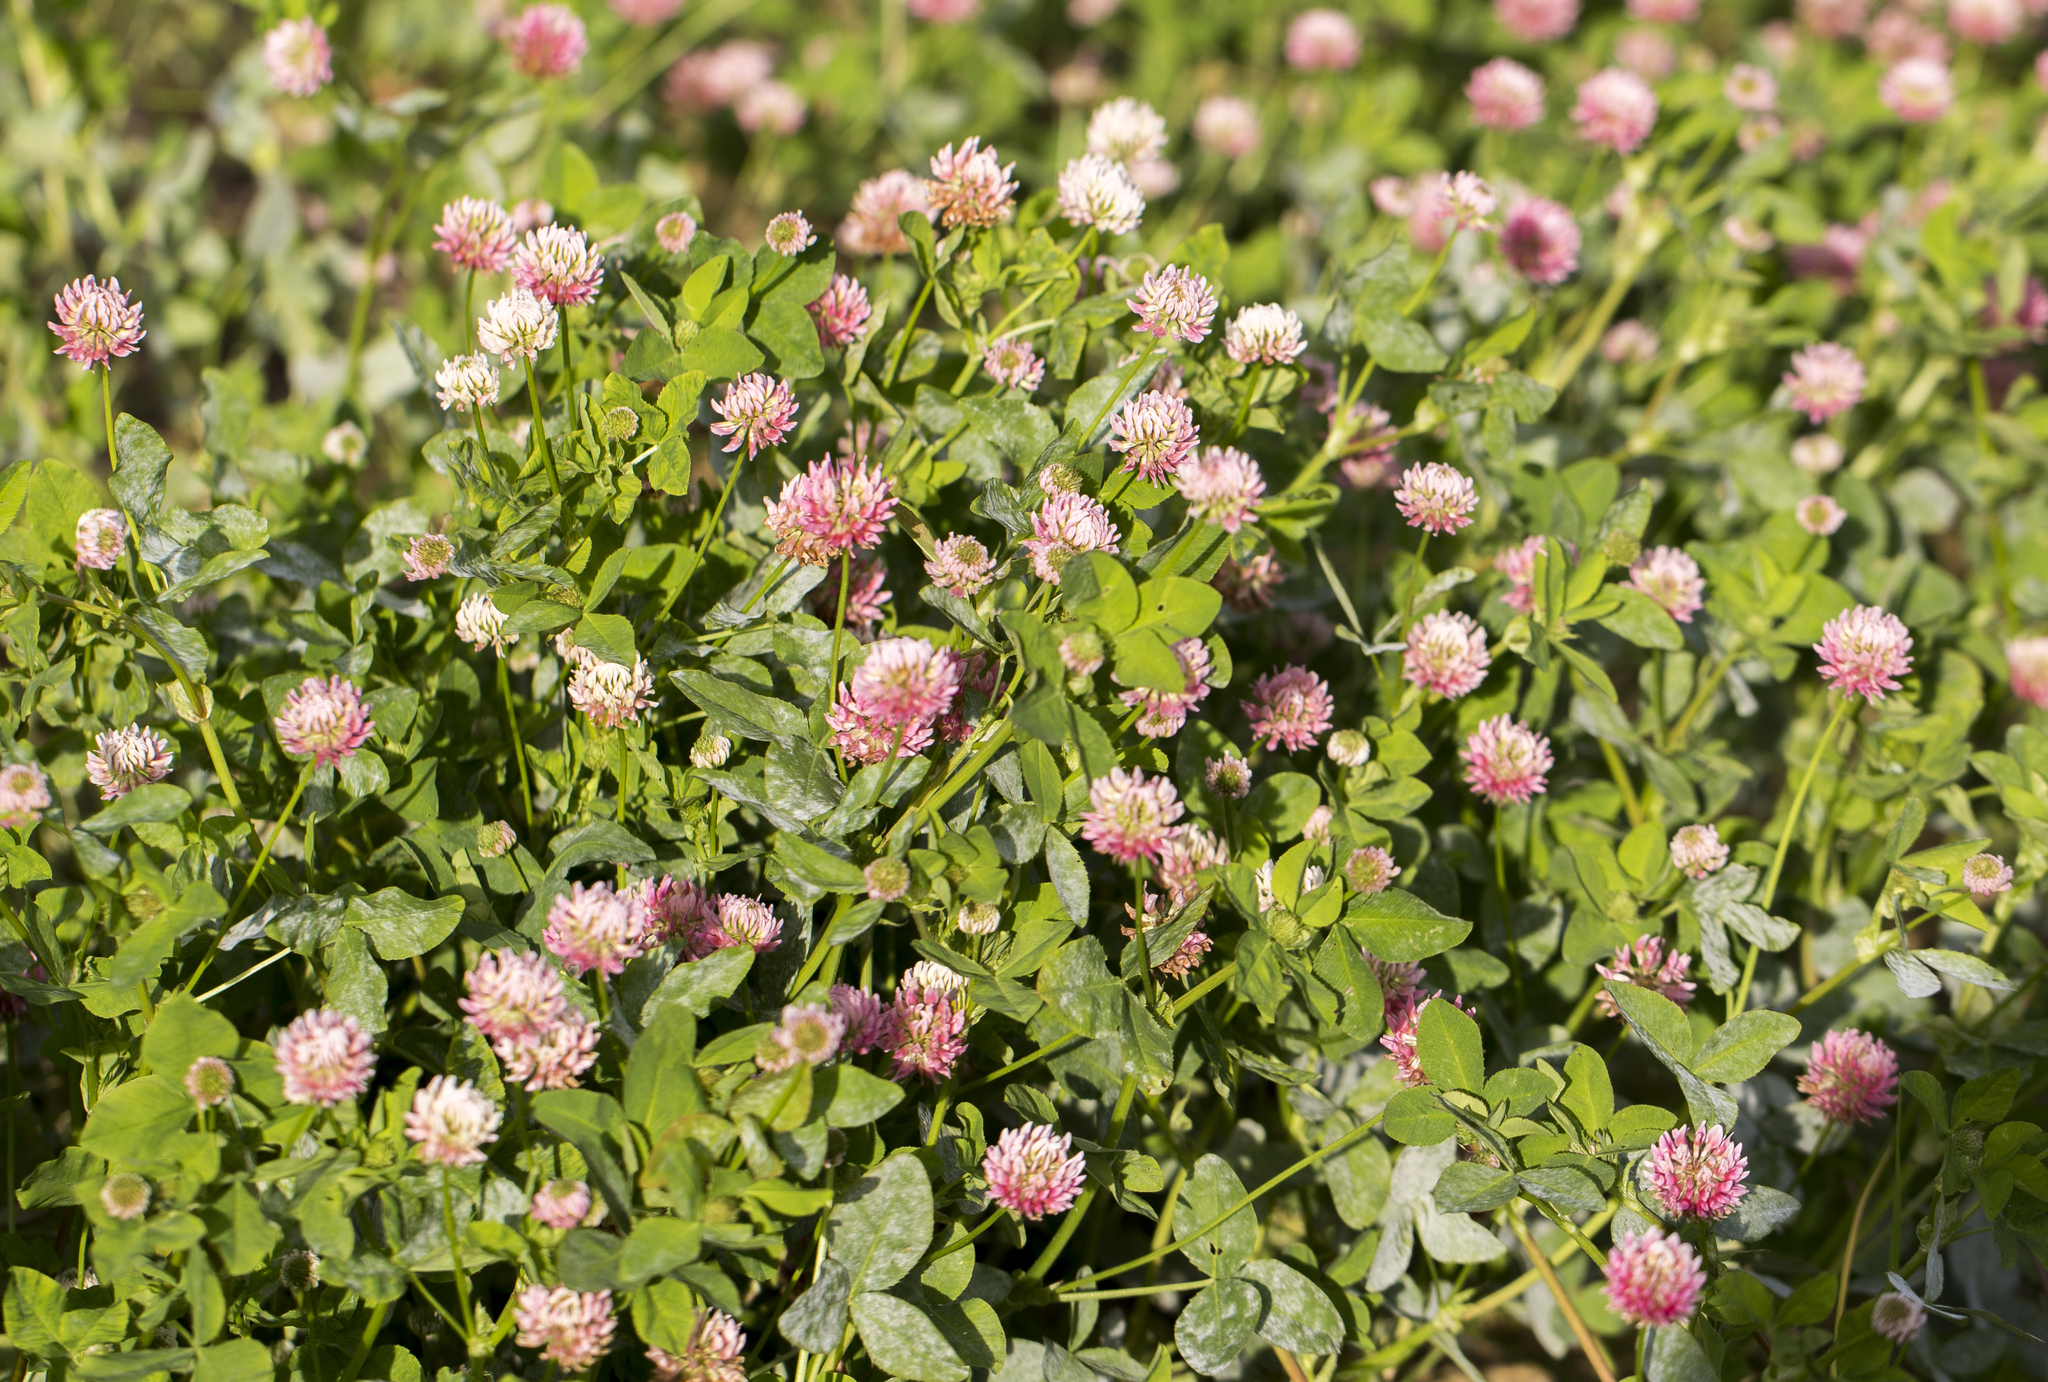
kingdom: Plantae
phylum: Tracheophyta
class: Magnoliopsida
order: Fabales
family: Fabaceae
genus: Trifolium
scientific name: Trifolium hybridum
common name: Alsike clover
